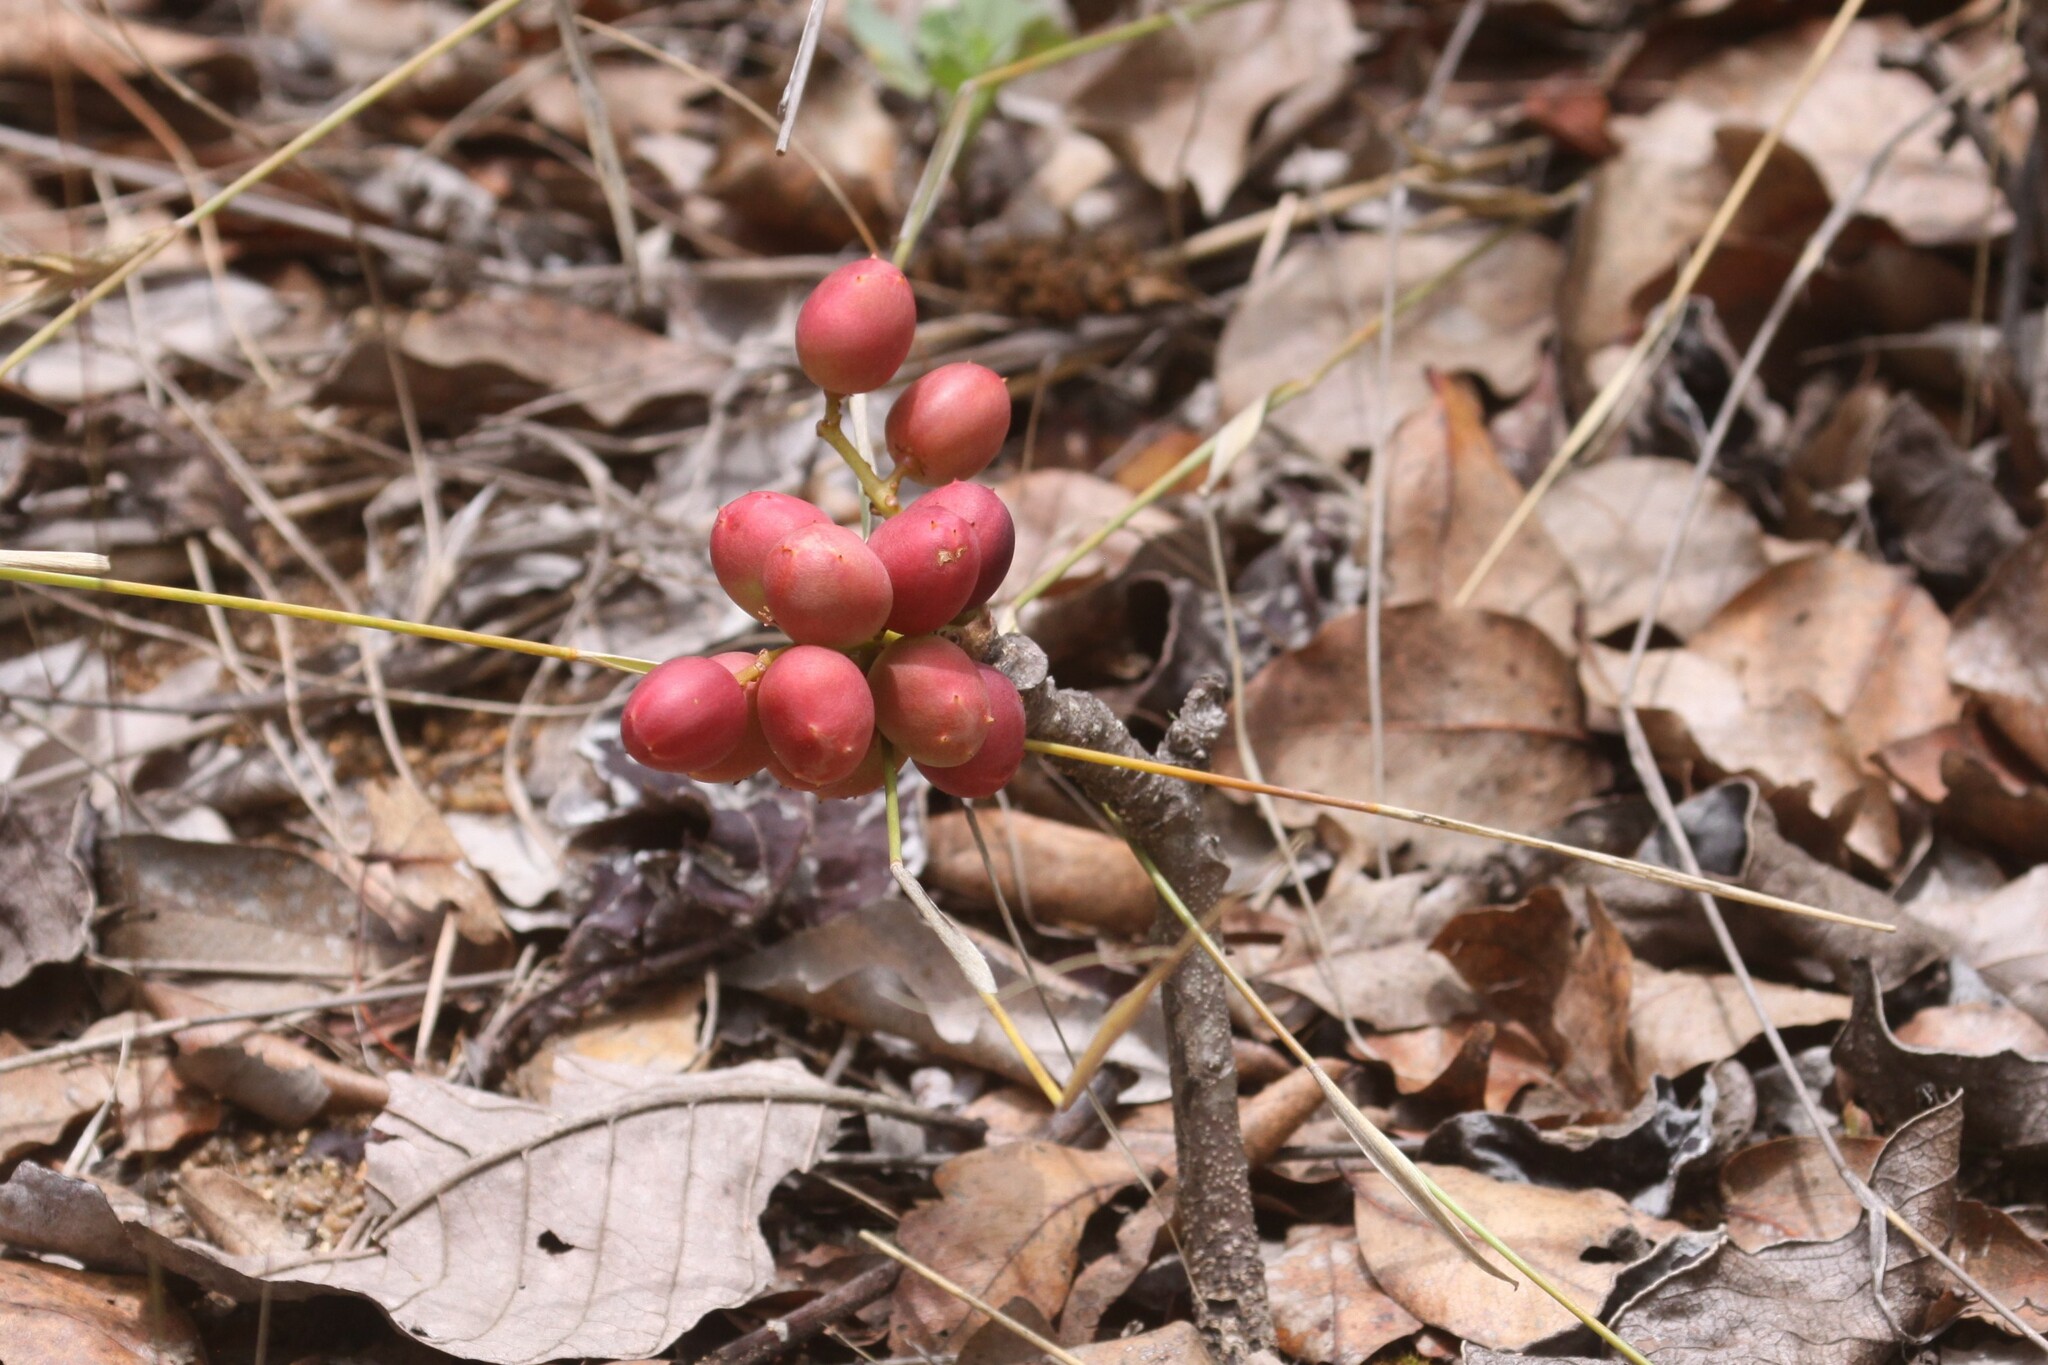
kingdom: Plantae
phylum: Tracheophyta
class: Magnoliopsida
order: Sapindales
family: Anacardiaceae
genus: Lannea
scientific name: Lannea edulis
